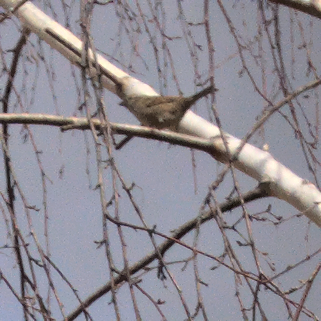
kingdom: Animalia
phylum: Chordata
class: Aves
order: Passeriformes
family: Passeridae
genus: Passer
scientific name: Passer domesticus
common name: House sparrow
